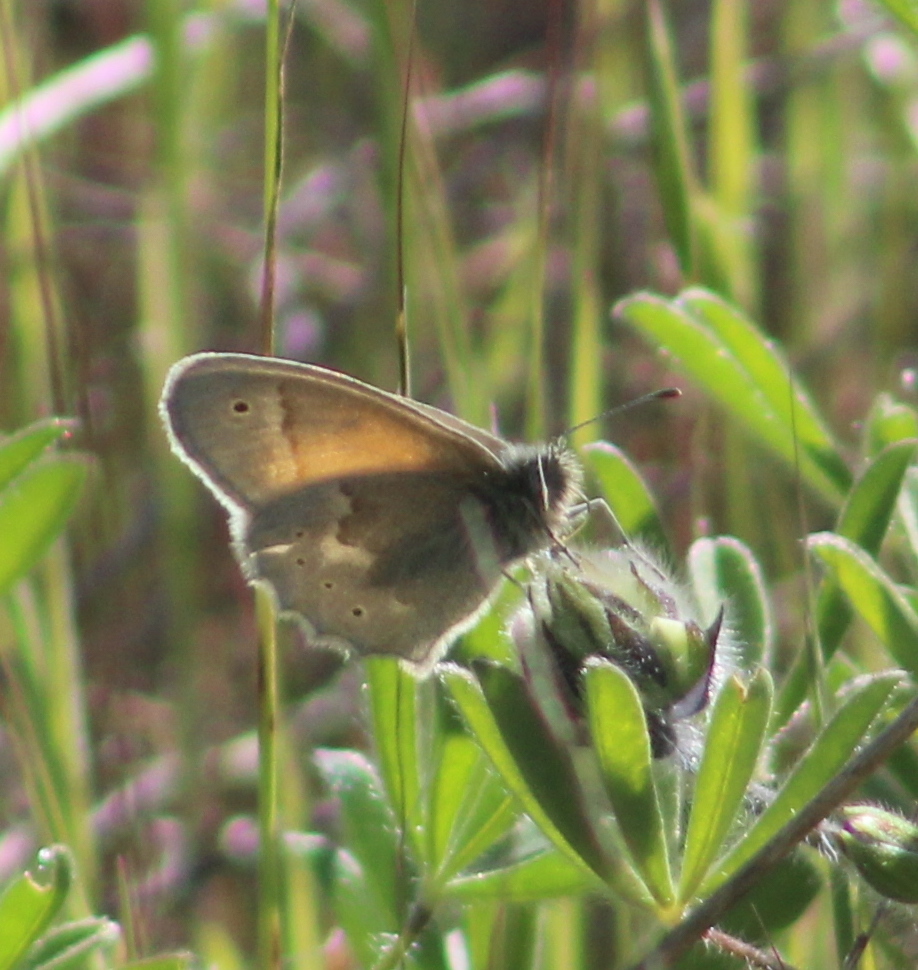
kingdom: Animalia
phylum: Arthropoda
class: Insecta
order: Lepidoptera
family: Nymphalidae
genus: Coenonympha
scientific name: Coenonympha california
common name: Common ringlet
